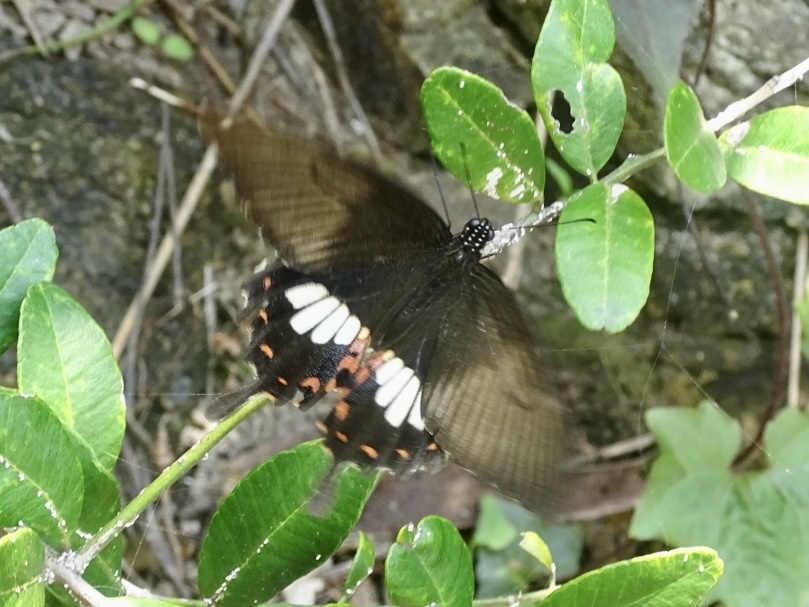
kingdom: Animalia
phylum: Arthropoda
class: Insecta
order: Lepidoptera
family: Papilionidae
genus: Papilio
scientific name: Papilio polytes
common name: Common mormon
